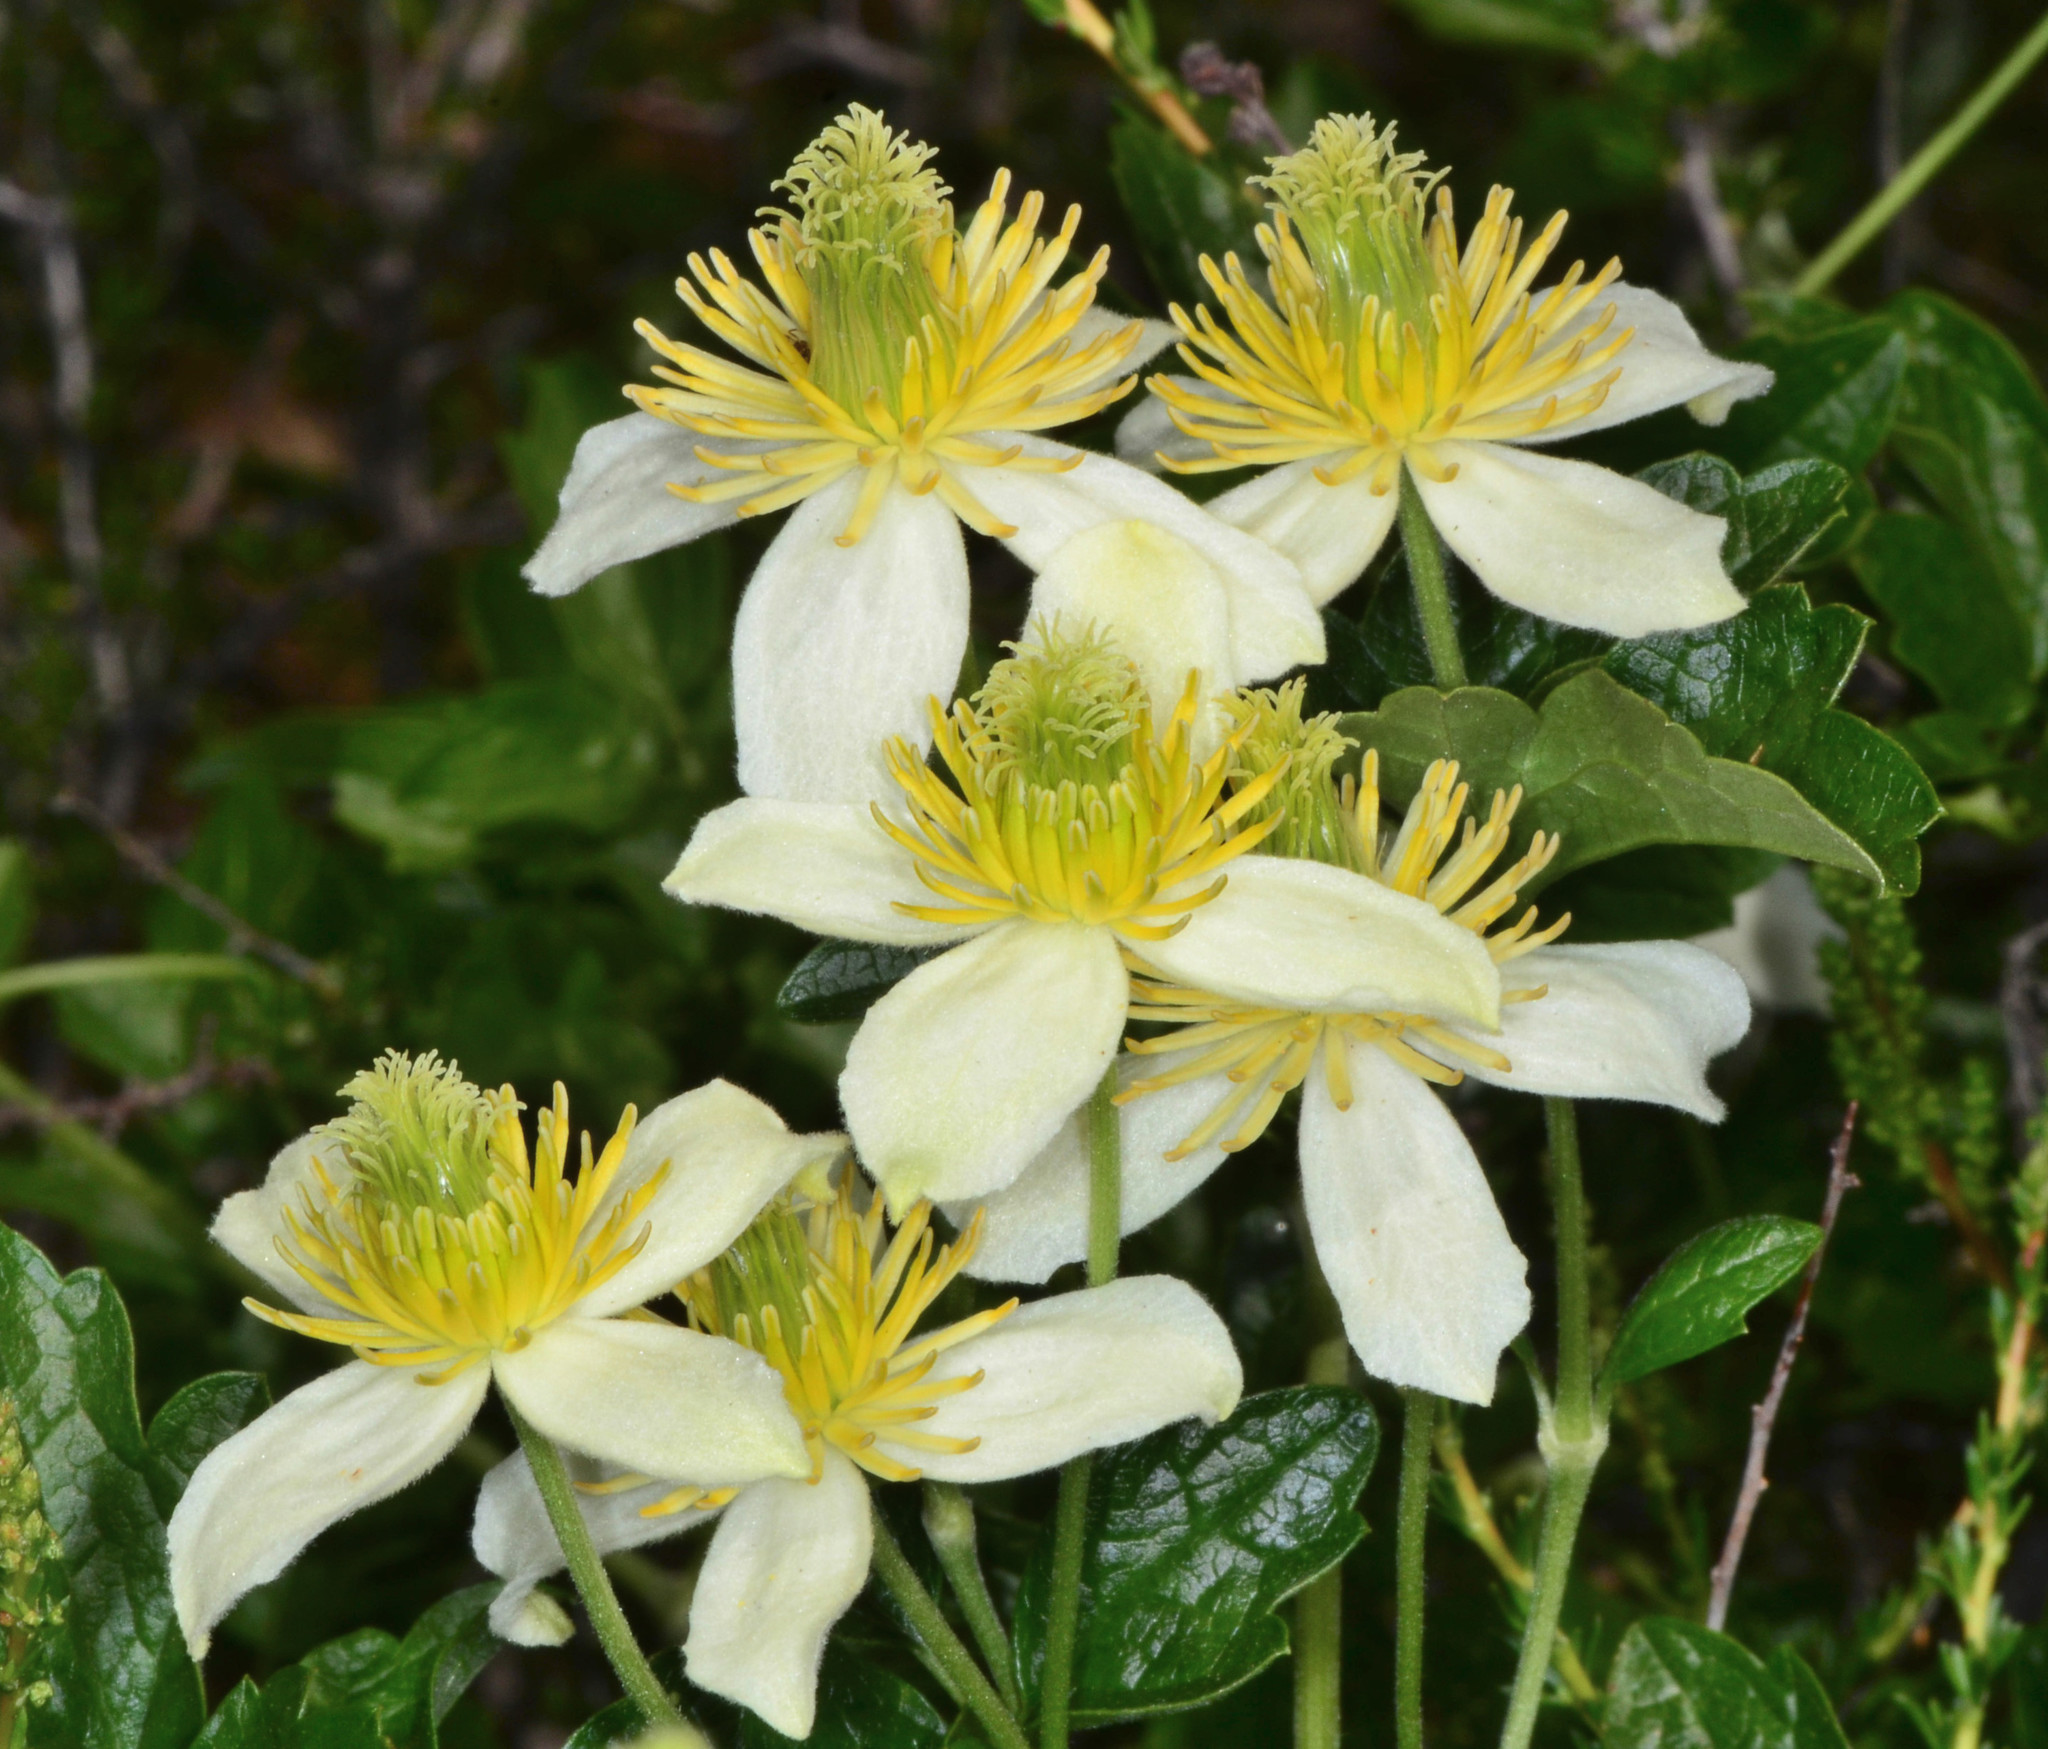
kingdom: Plantae
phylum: Tracheophyta
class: Magnoliopsida
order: Ranunculales
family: Ranunculaceae
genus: Clematis
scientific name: Clematis lasiantha
